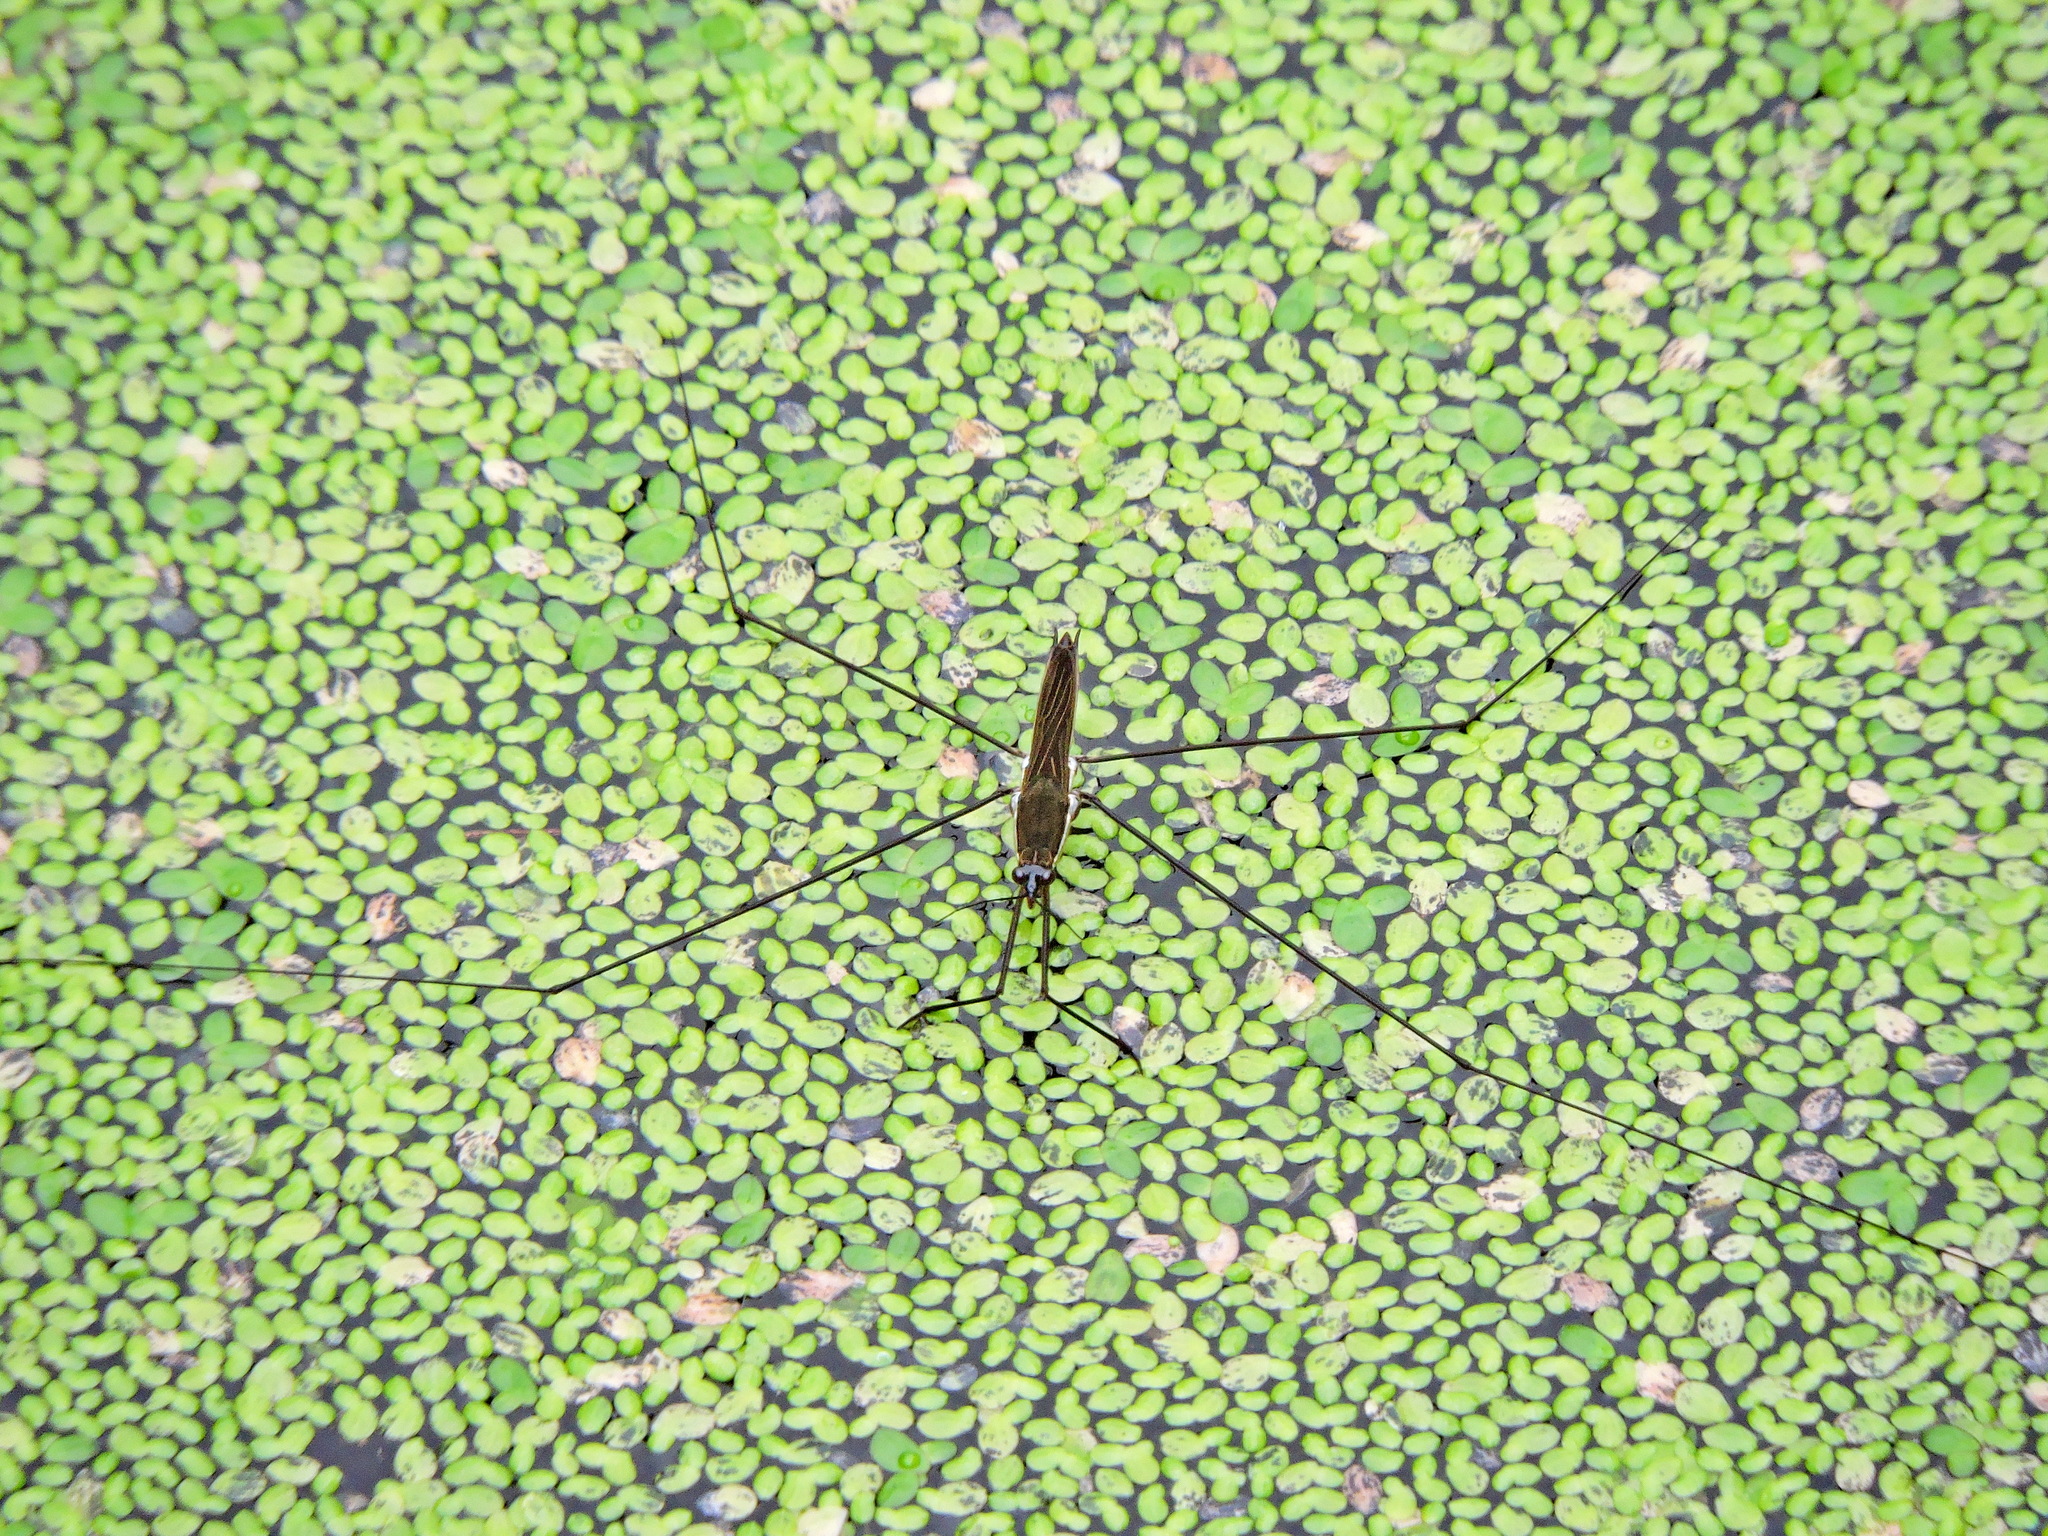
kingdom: Animalia
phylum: Arthropoda
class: Insecta
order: Hemiptera
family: Gerridae
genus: Aquarius
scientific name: Aquarius elongatus
